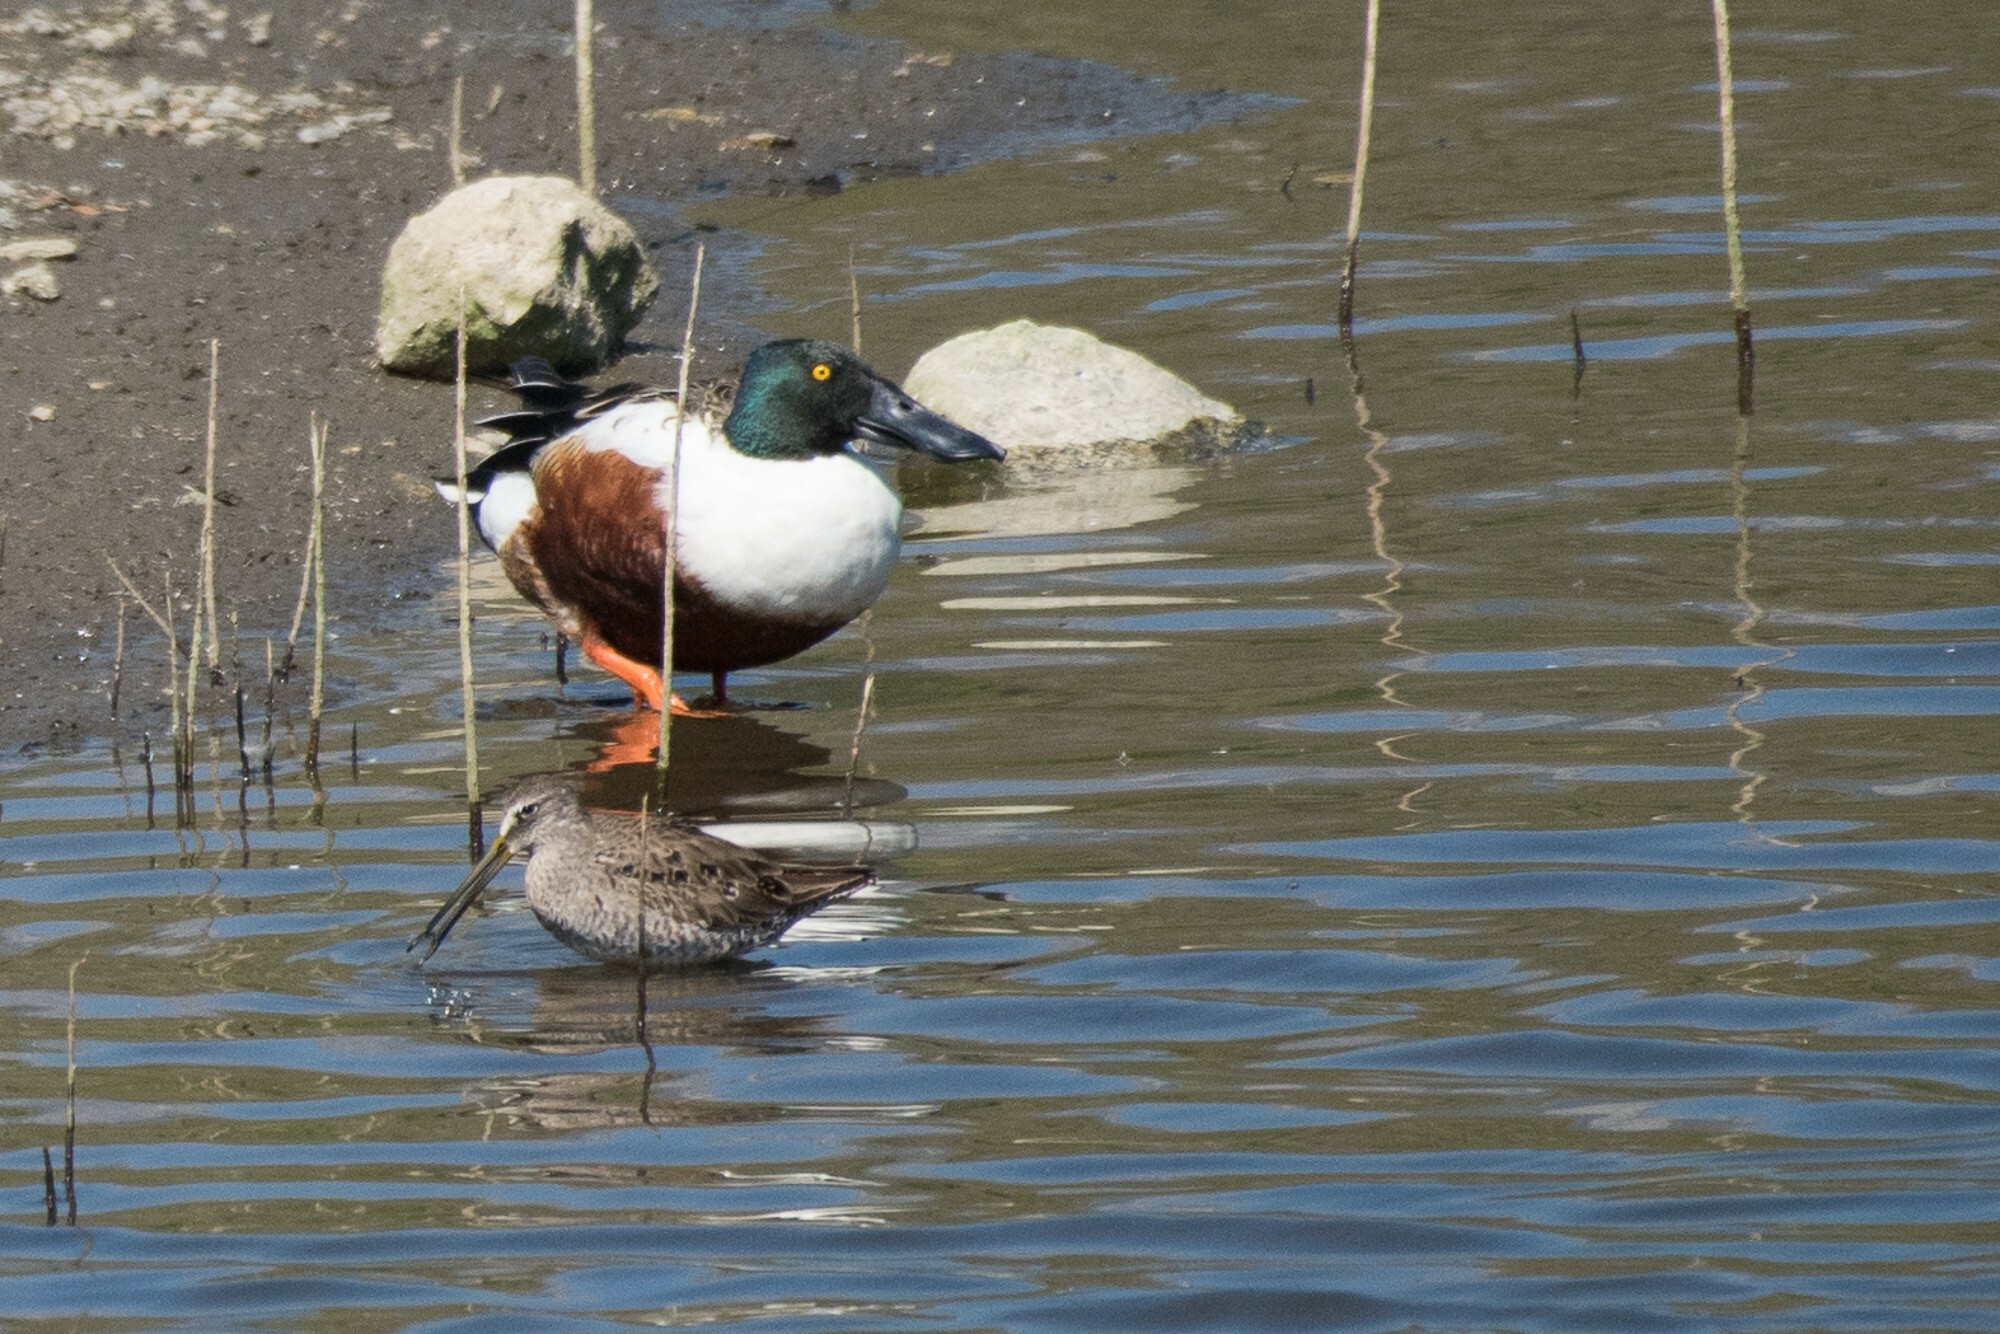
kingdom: Animalia
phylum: Chordata
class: Aves
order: Anseriformes
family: Anatidae
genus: Spatula
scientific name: Spatula clypeata
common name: Northern shoveler
